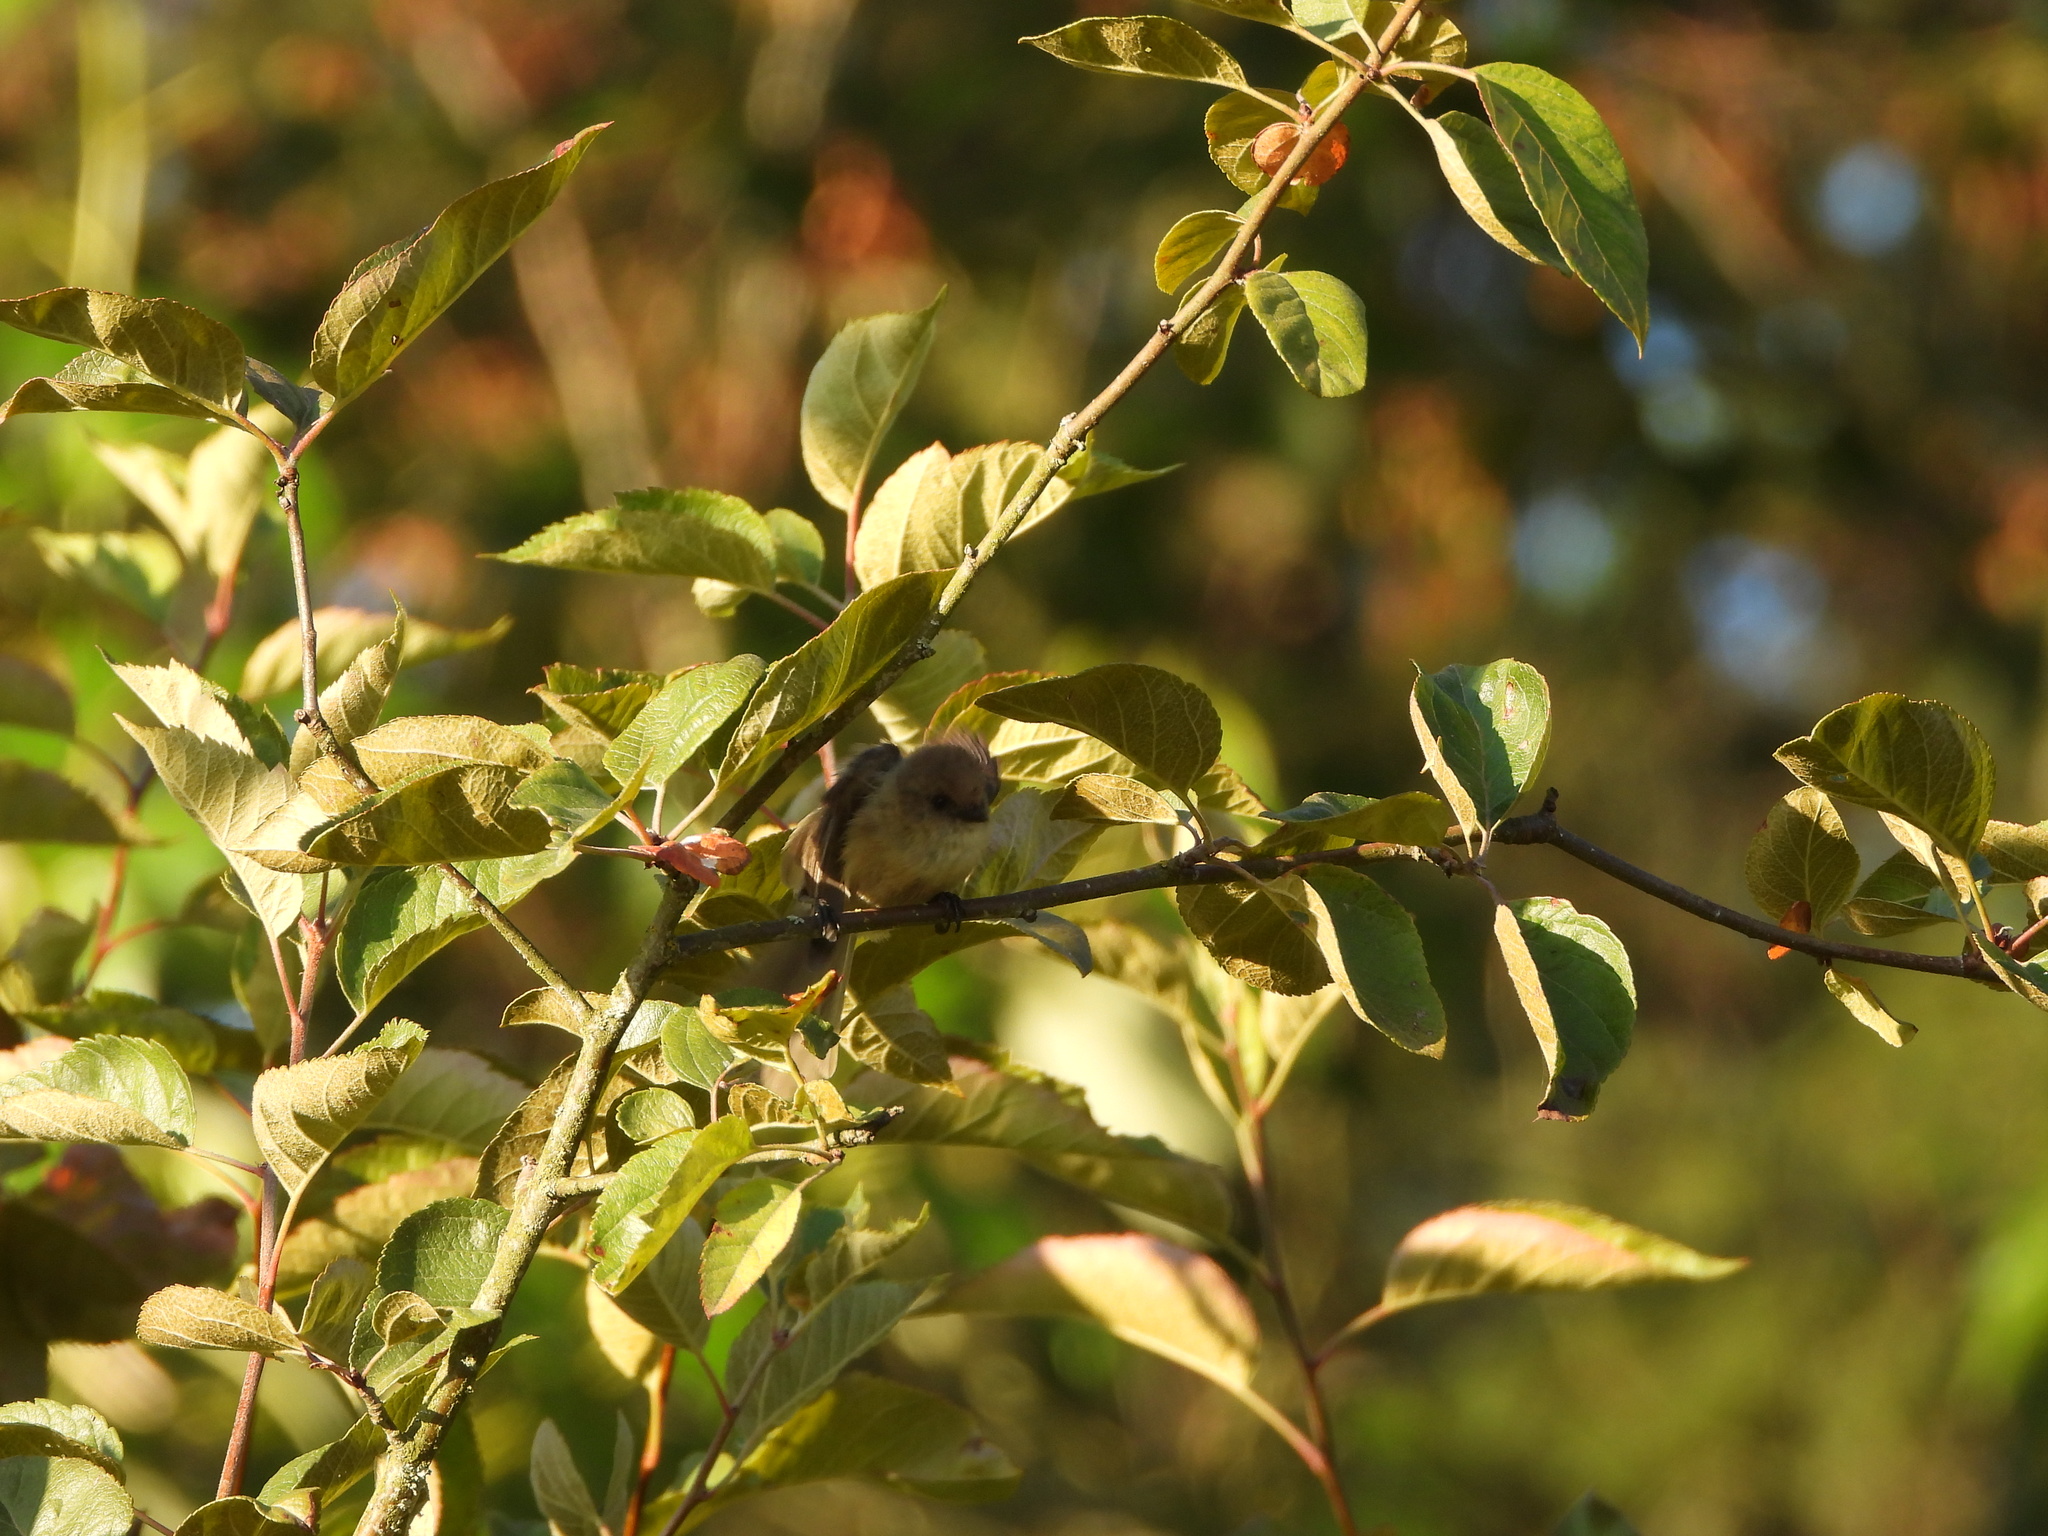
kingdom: Animalia
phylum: Chordata
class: Aves
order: Passeriformes
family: Aegithalidae
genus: Psaltriparus
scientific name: Psaltriparus minimus
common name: American bushtit
